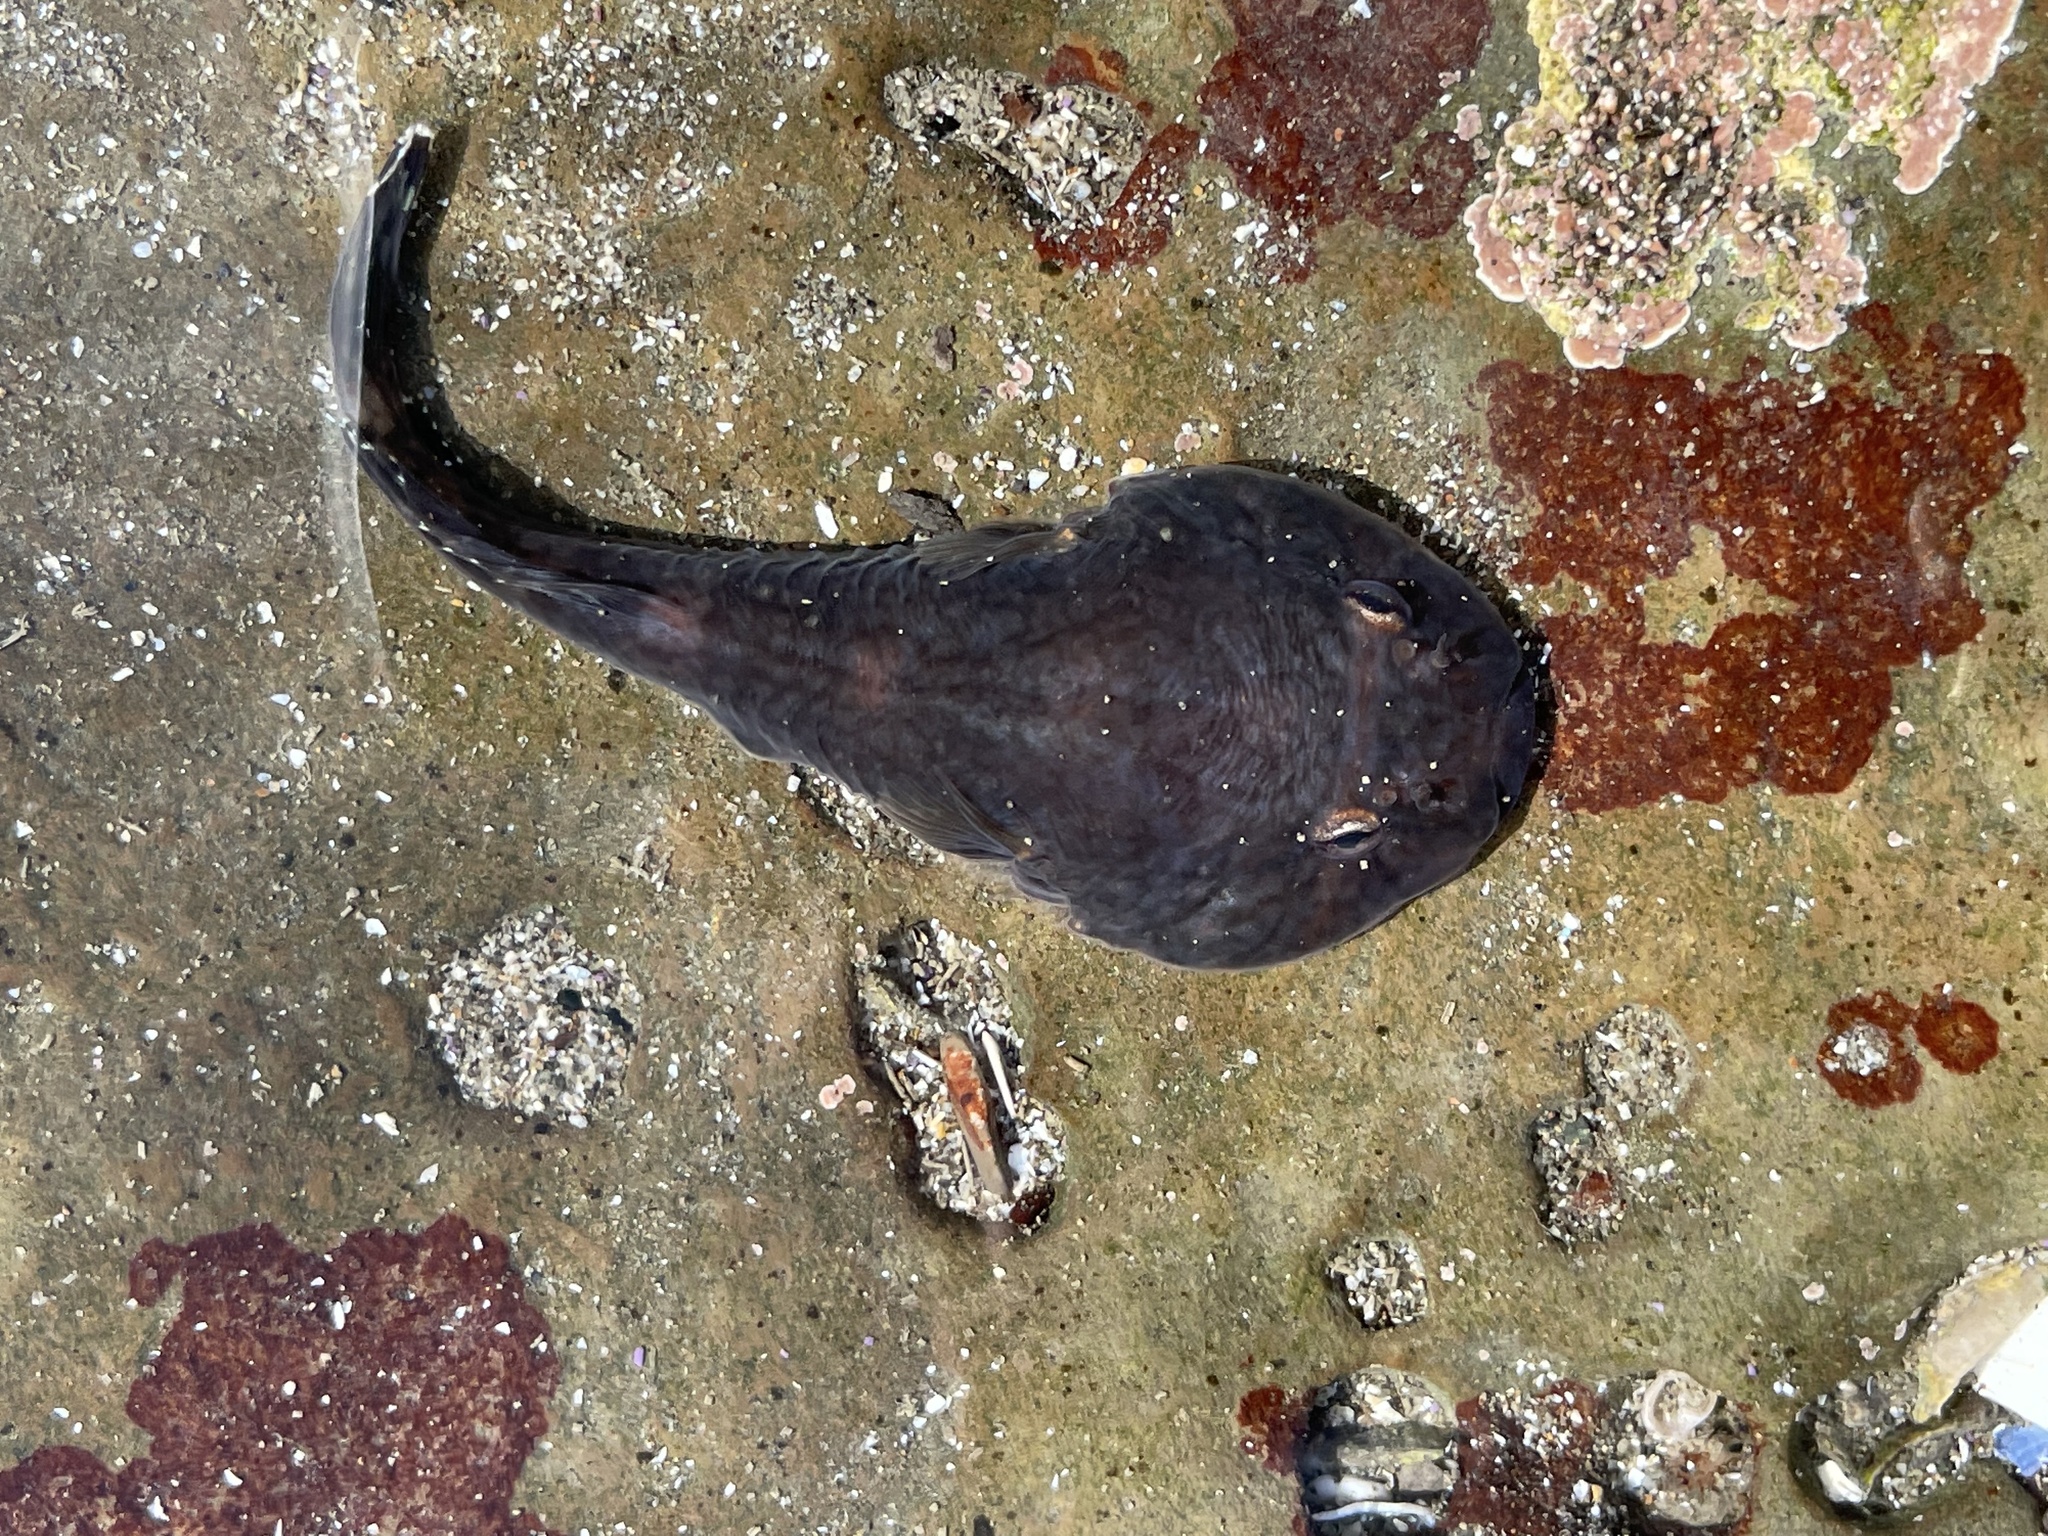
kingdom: Animalia
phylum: Chordata
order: Gobiesociformes
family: Gobiesocidae
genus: Gobiesox
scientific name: Gobiesox maeandricus
